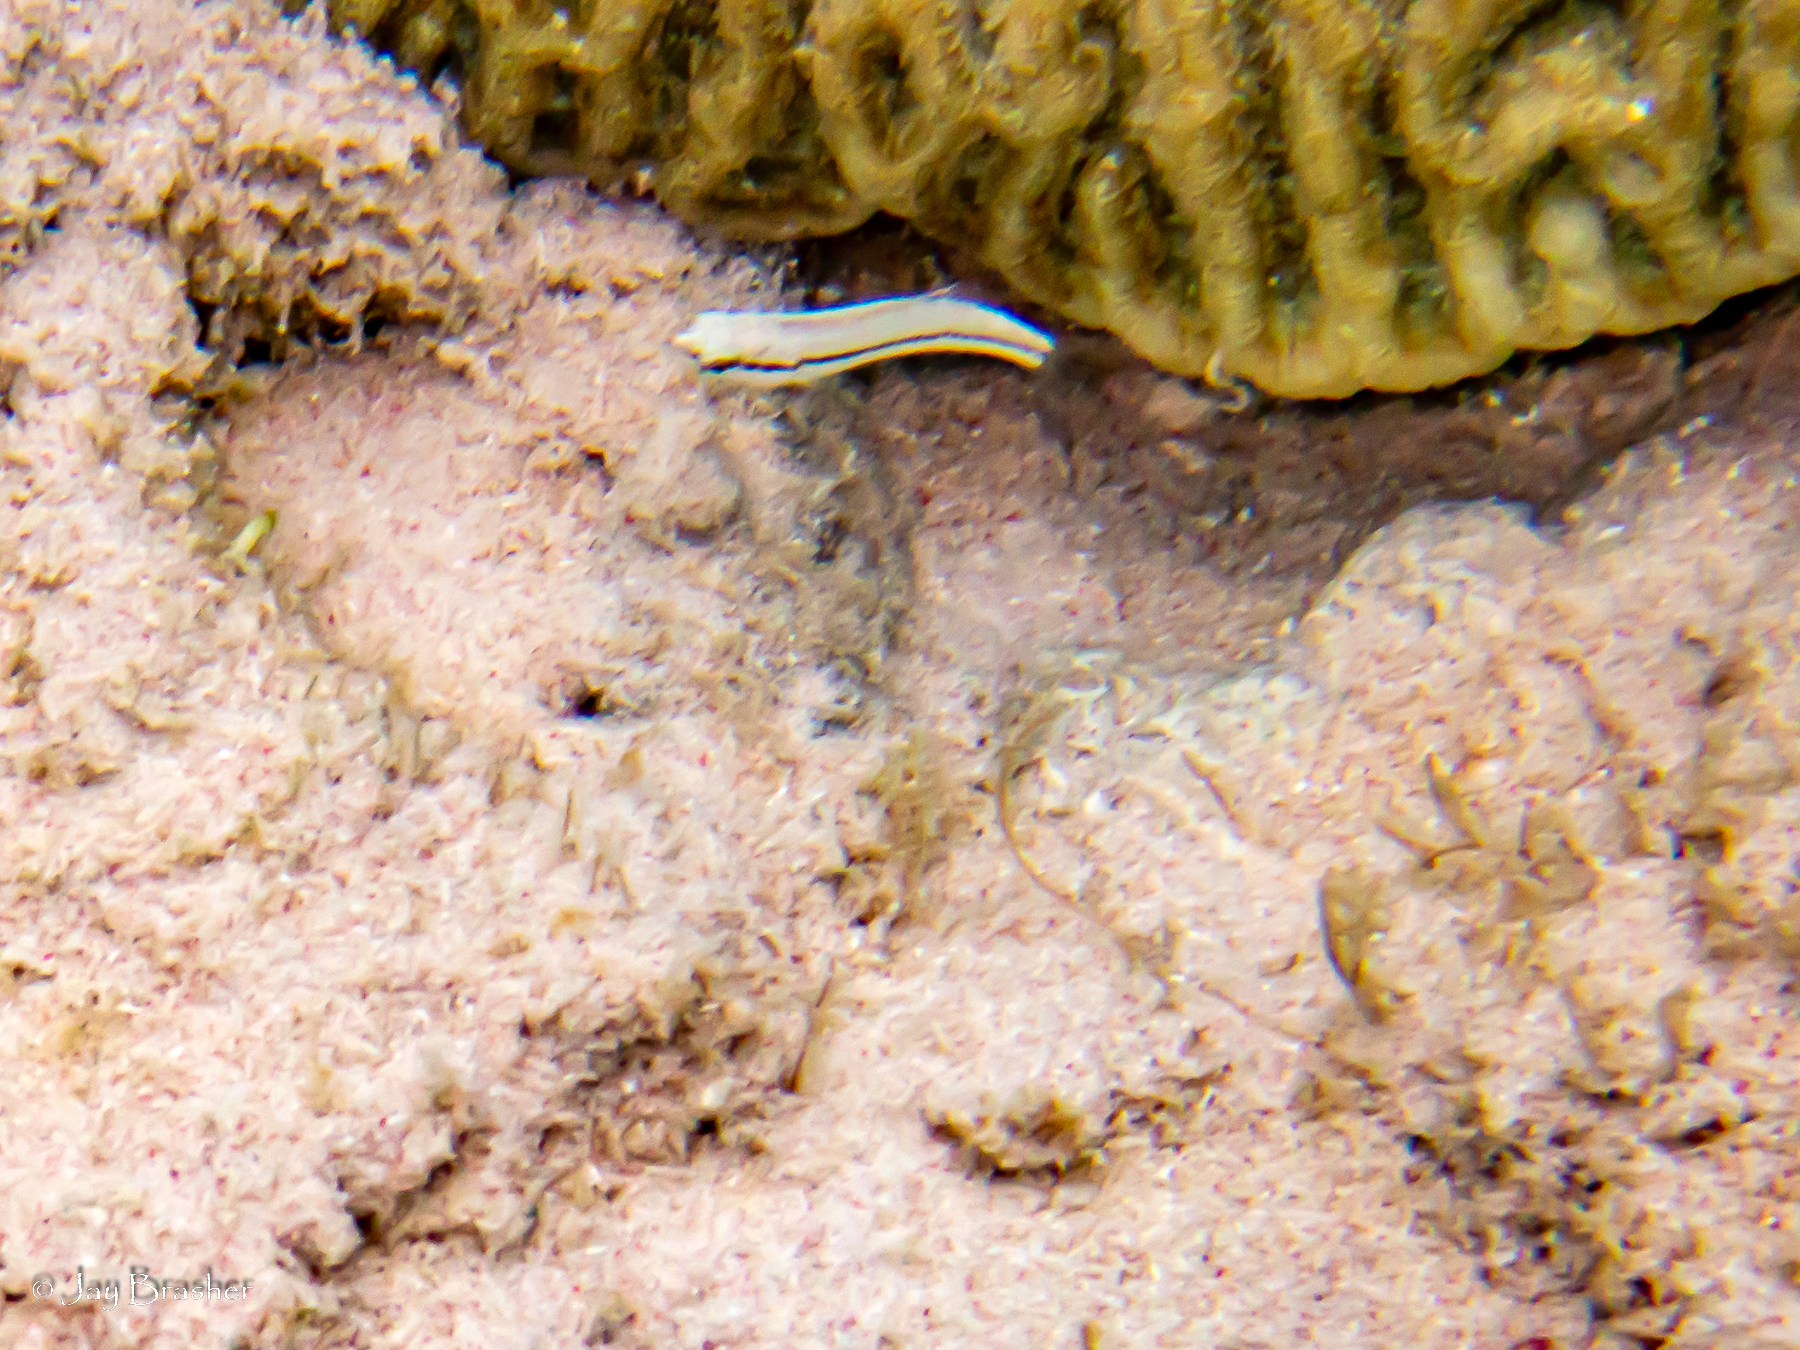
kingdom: Animalia
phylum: Chordata
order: Perciformes
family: Labridae
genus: Halichoeres
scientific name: Halichoeres bivittatus
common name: Slippery dick
